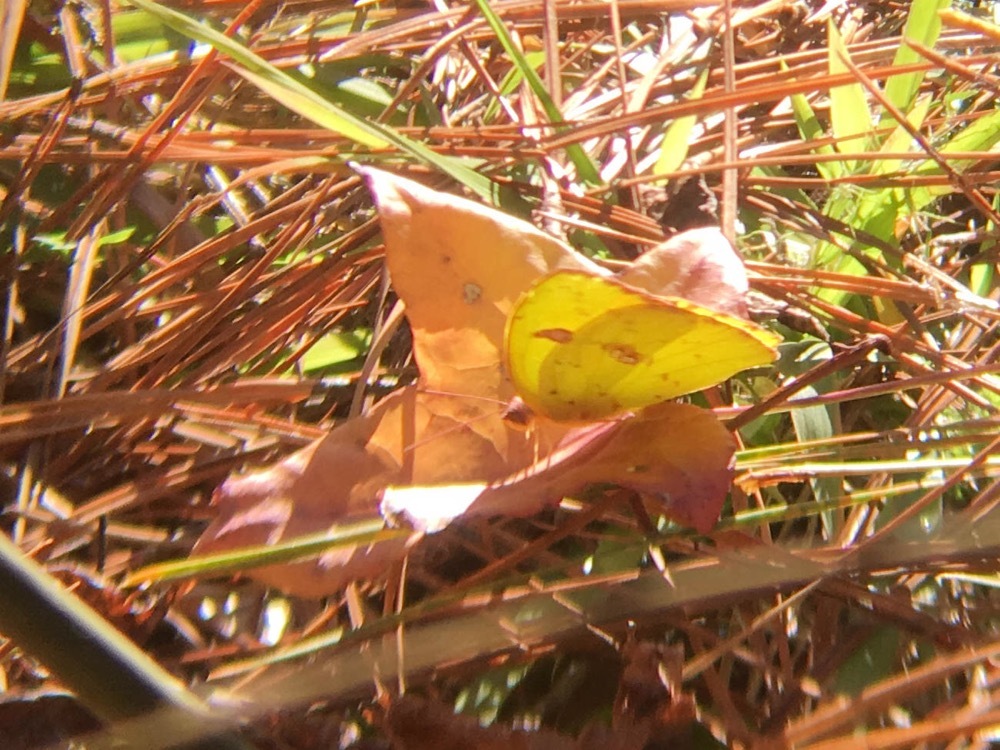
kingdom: Animalia
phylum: Arthropoda
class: Insecta
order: Lepidoptera
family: Pieridae
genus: Phoebis
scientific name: Phoebis sennae
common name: Cloudless sulphur
